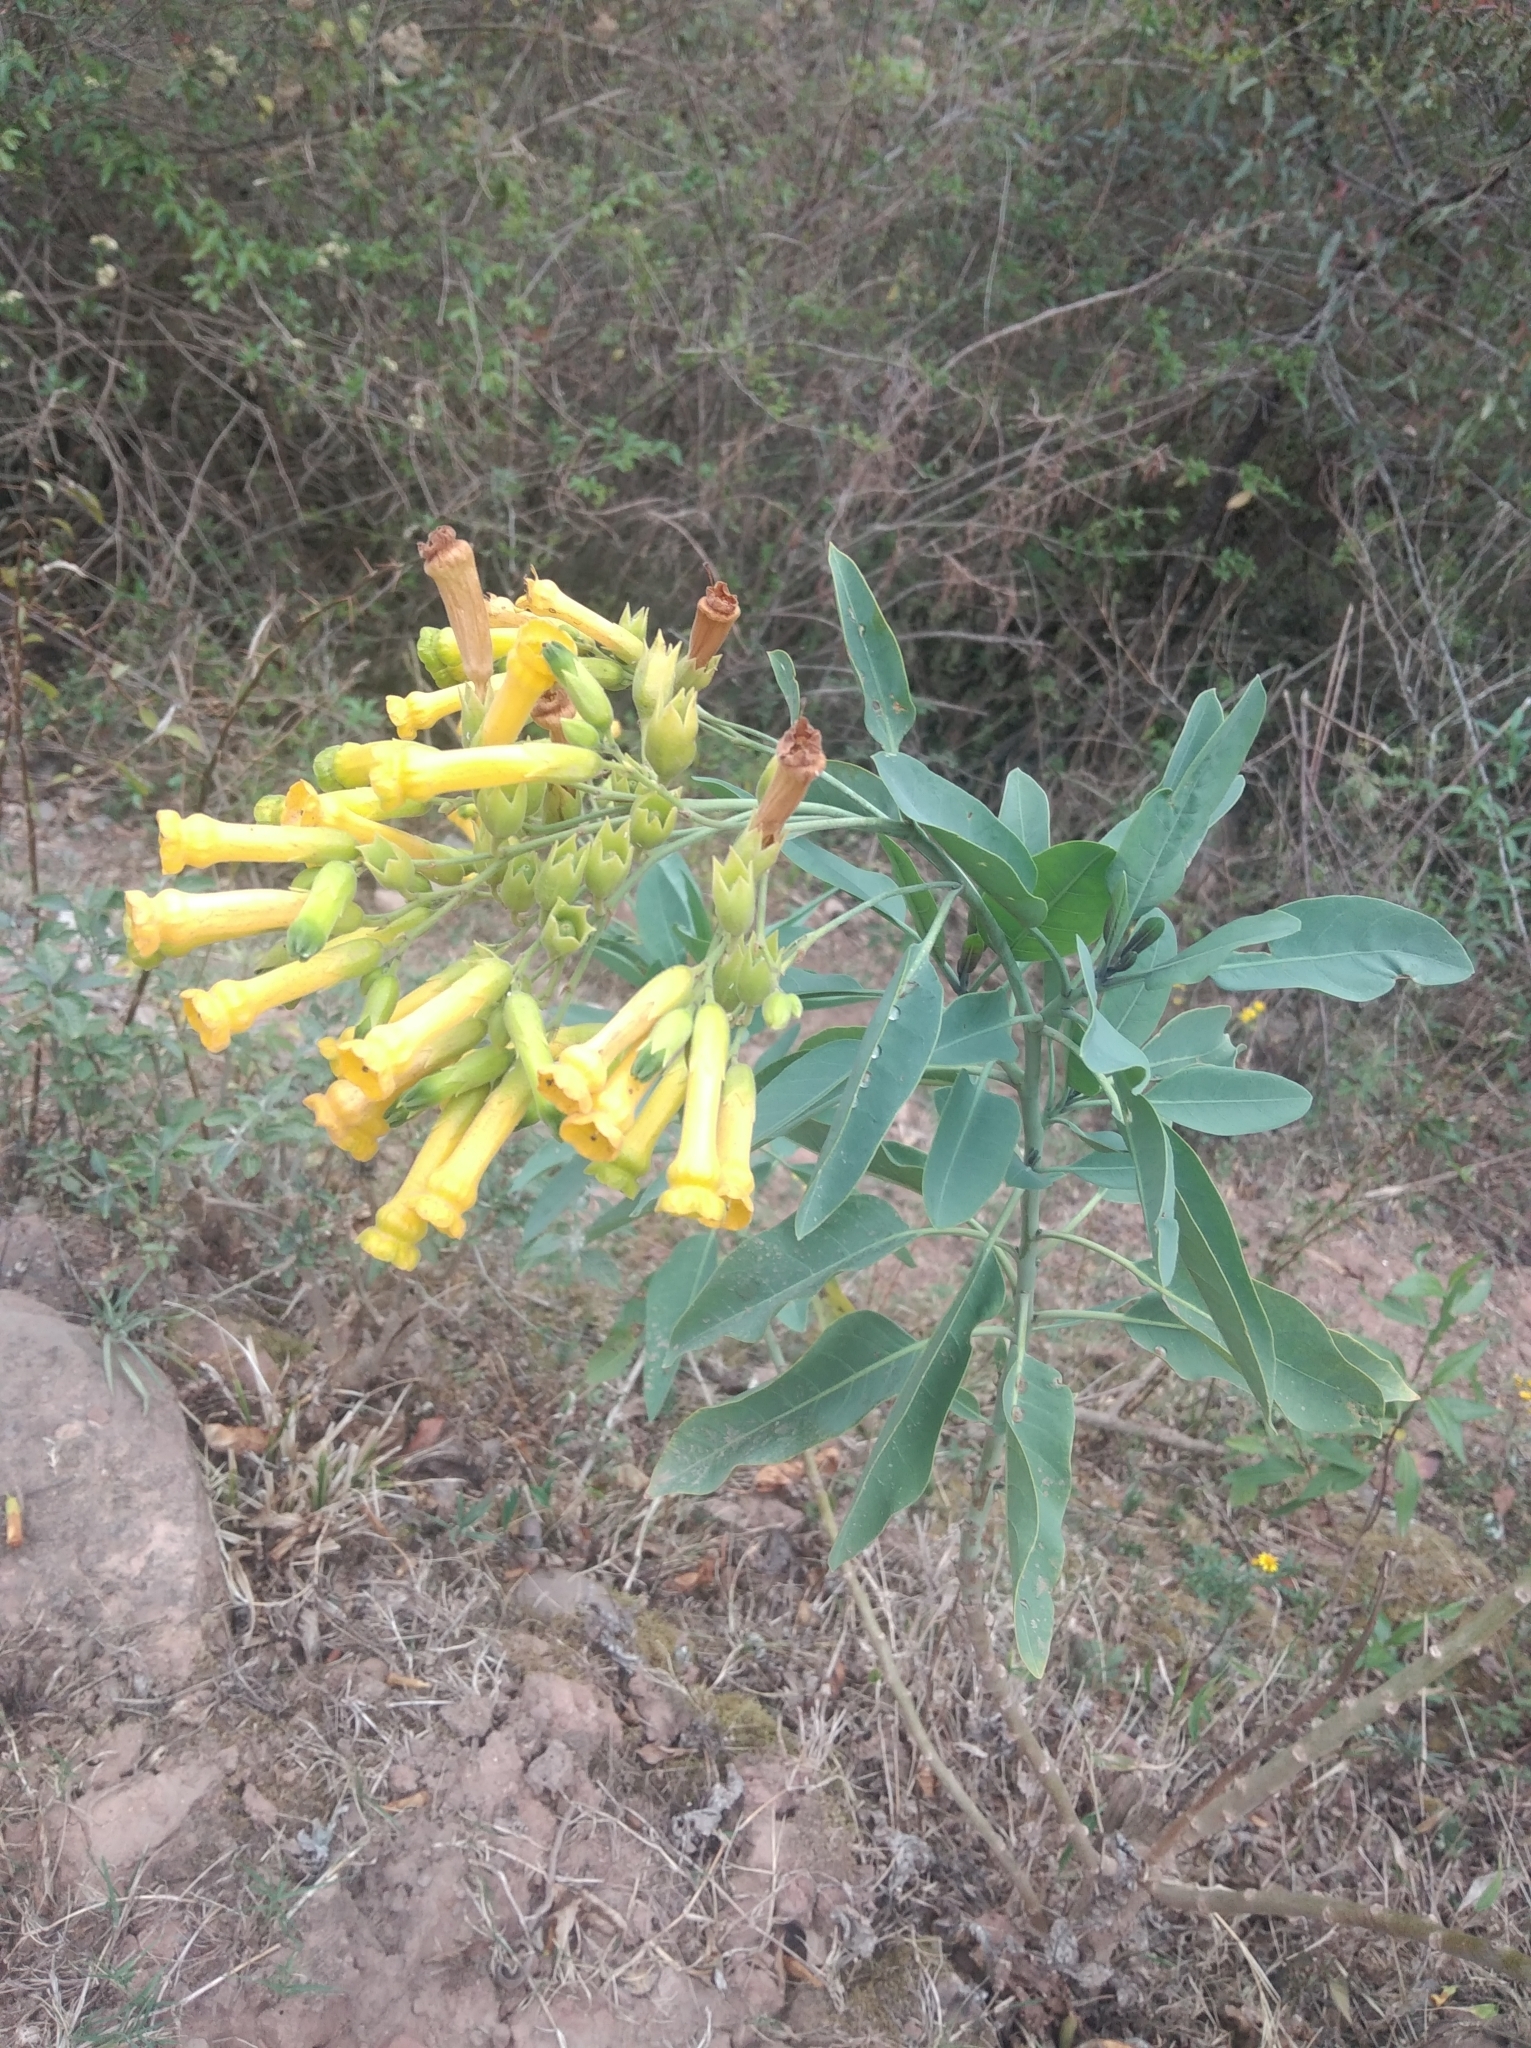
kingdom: Plantae
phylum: Tracheophyta
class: Magnoliopsida
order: Solanales
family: Solanaceae
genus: Nicotiana
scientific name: Nicotiana glauca
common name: Tree tobacco
